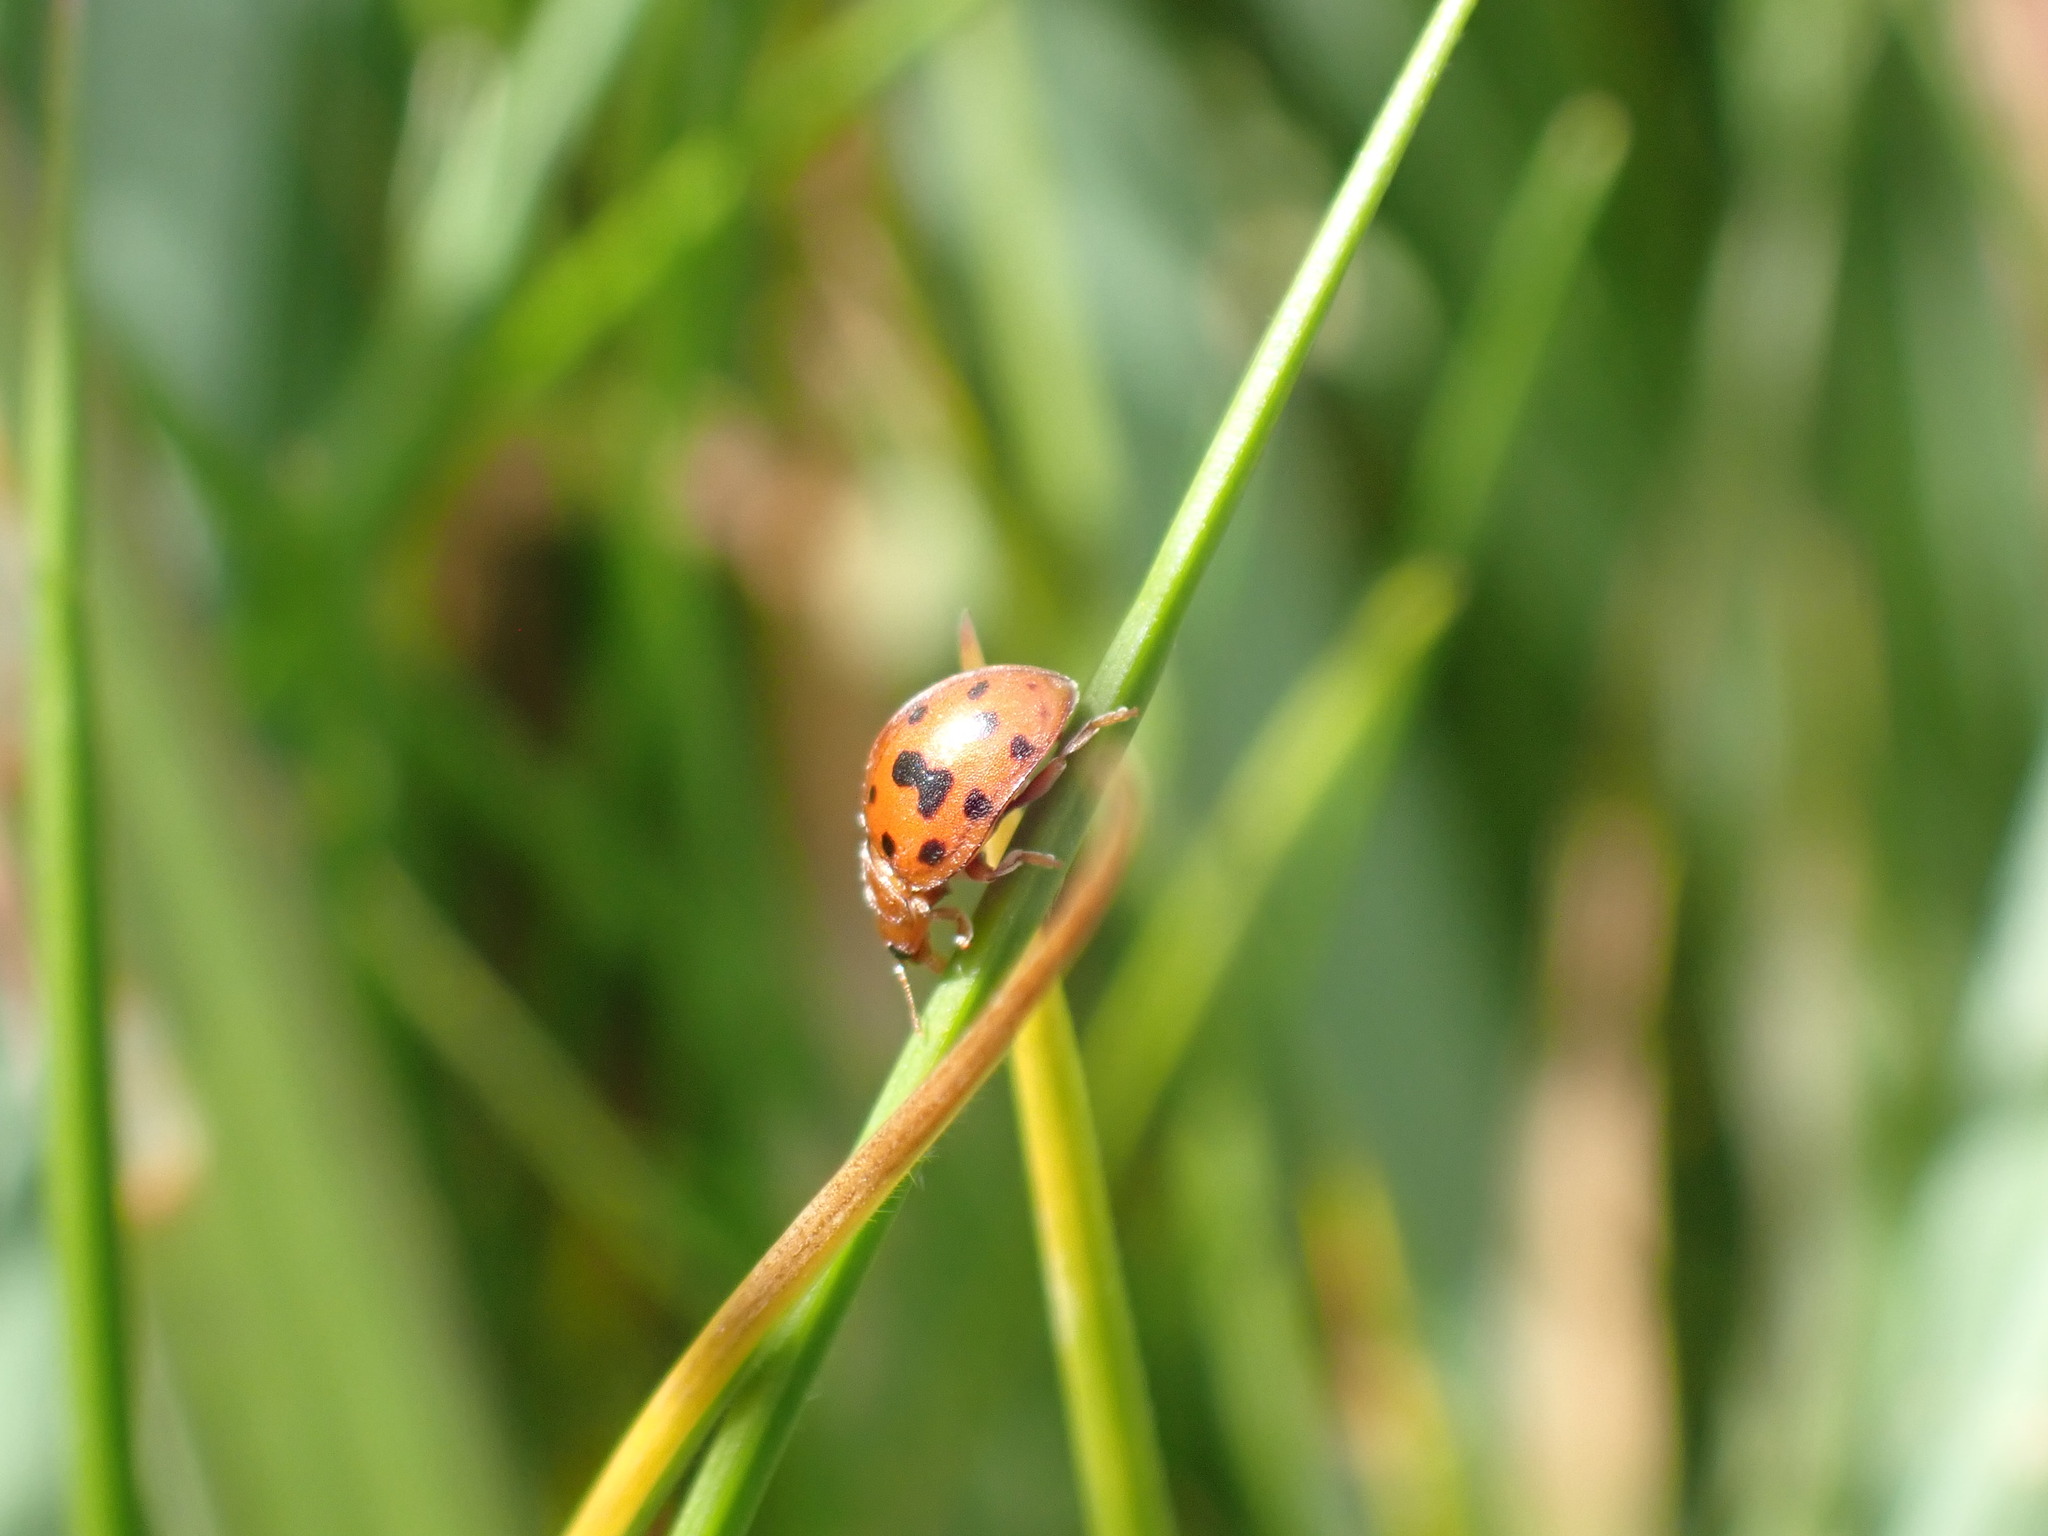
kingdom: Animalia
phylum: Arthropoda
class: Insecta
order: Coleoptera
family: Coccinellidae
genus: Subcoccinella
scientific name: Subcoccinella vigintiquatuorpunctata
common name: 24-spot ladybird
